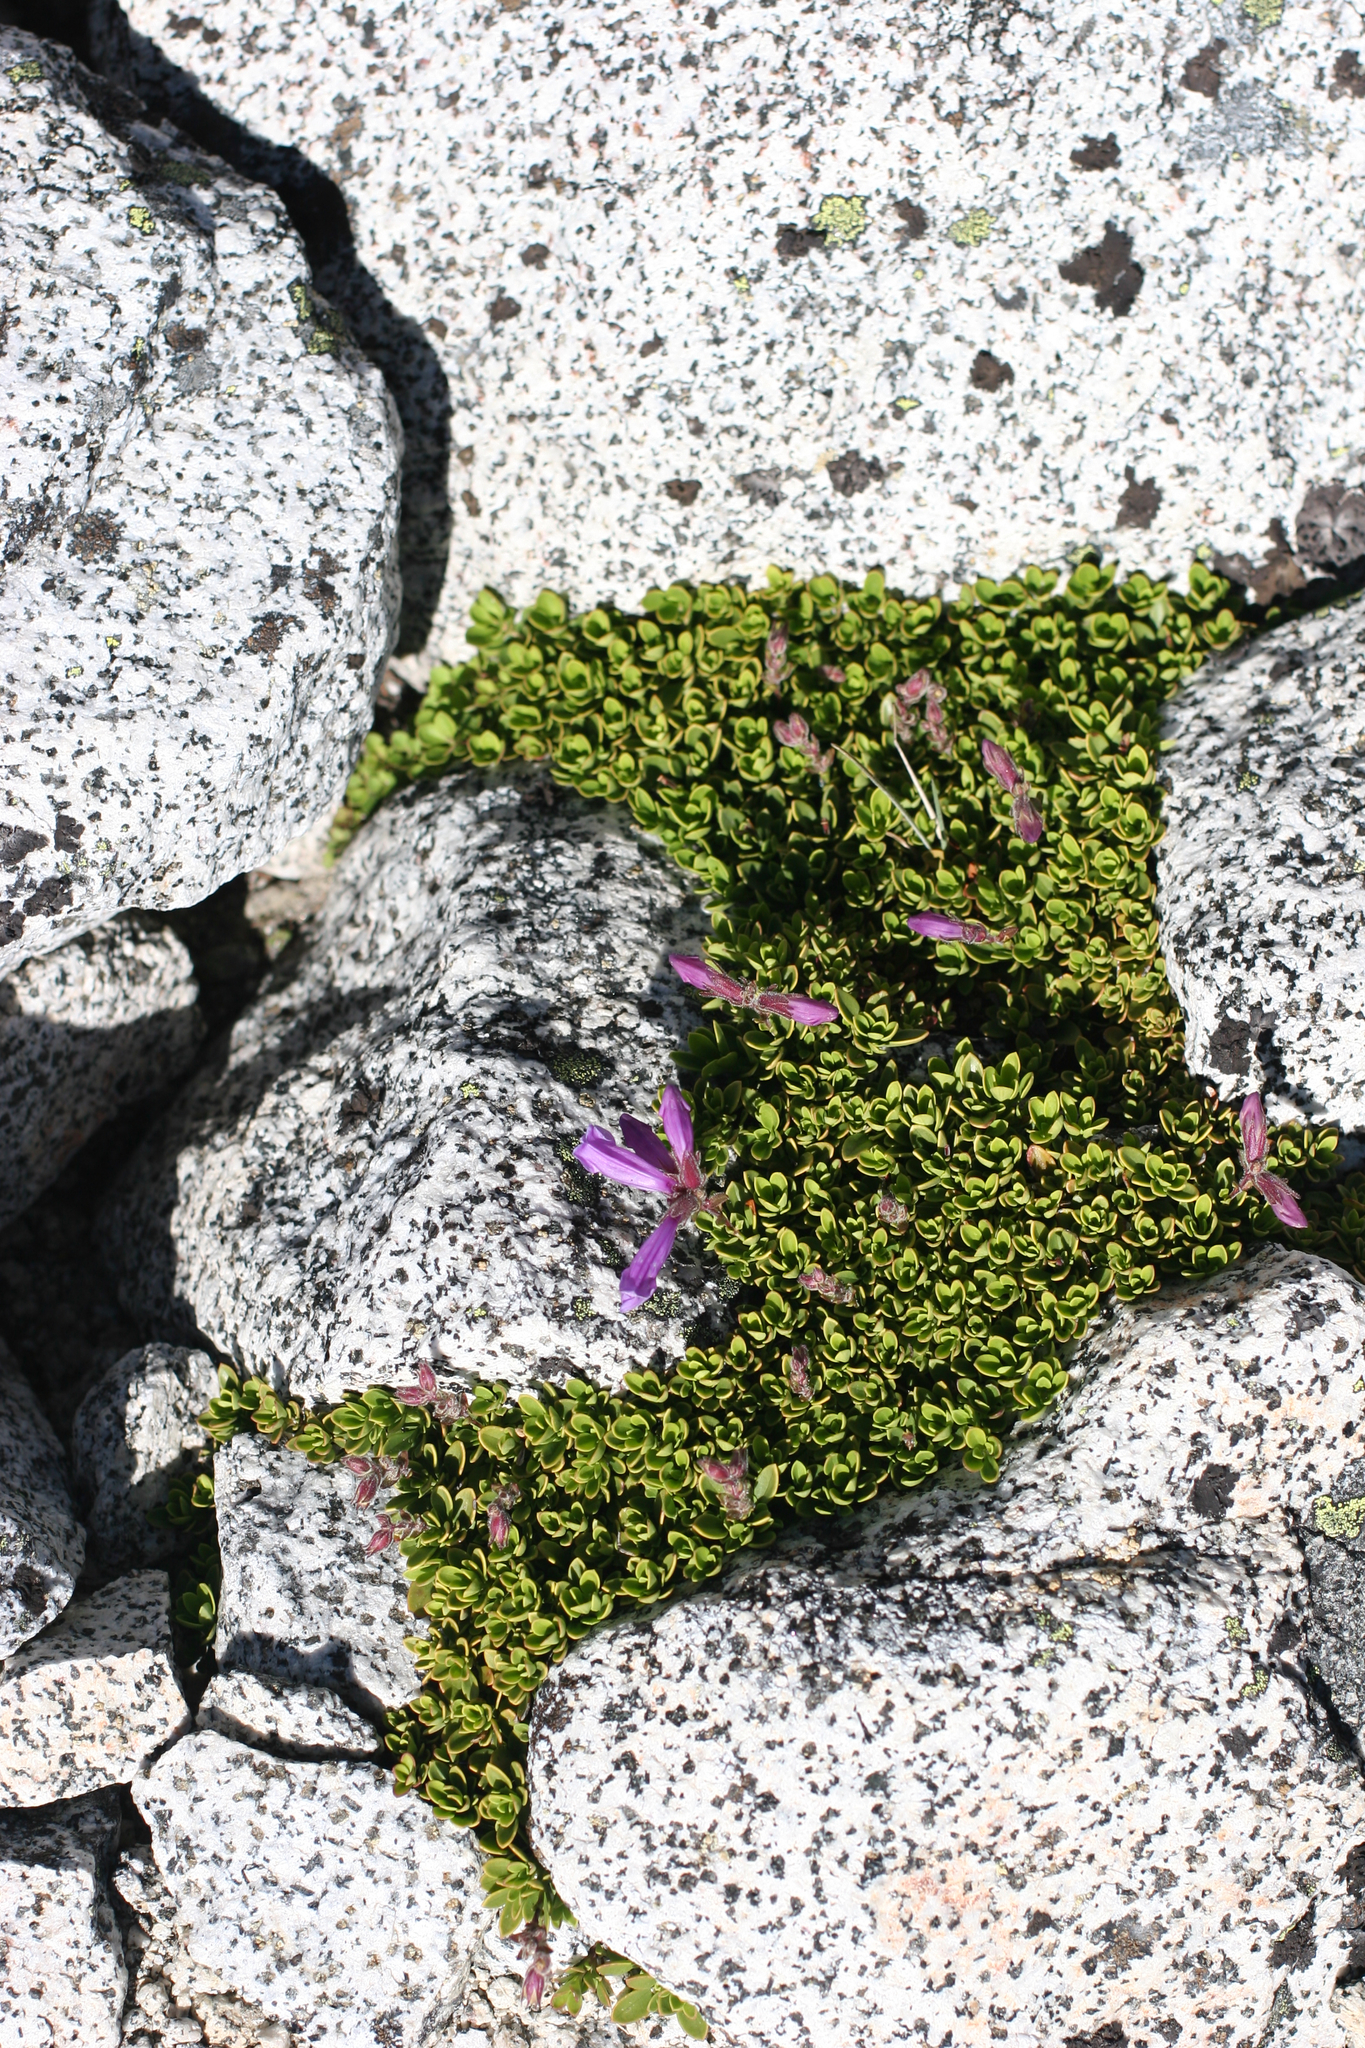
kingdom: Plantae
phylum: Tracheophyta
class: Magnoliopsida
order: Lamiales
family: Plantaginaceae
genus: Penstemon
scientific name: Penstemon davidsonii
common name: Davidson's penstemon
